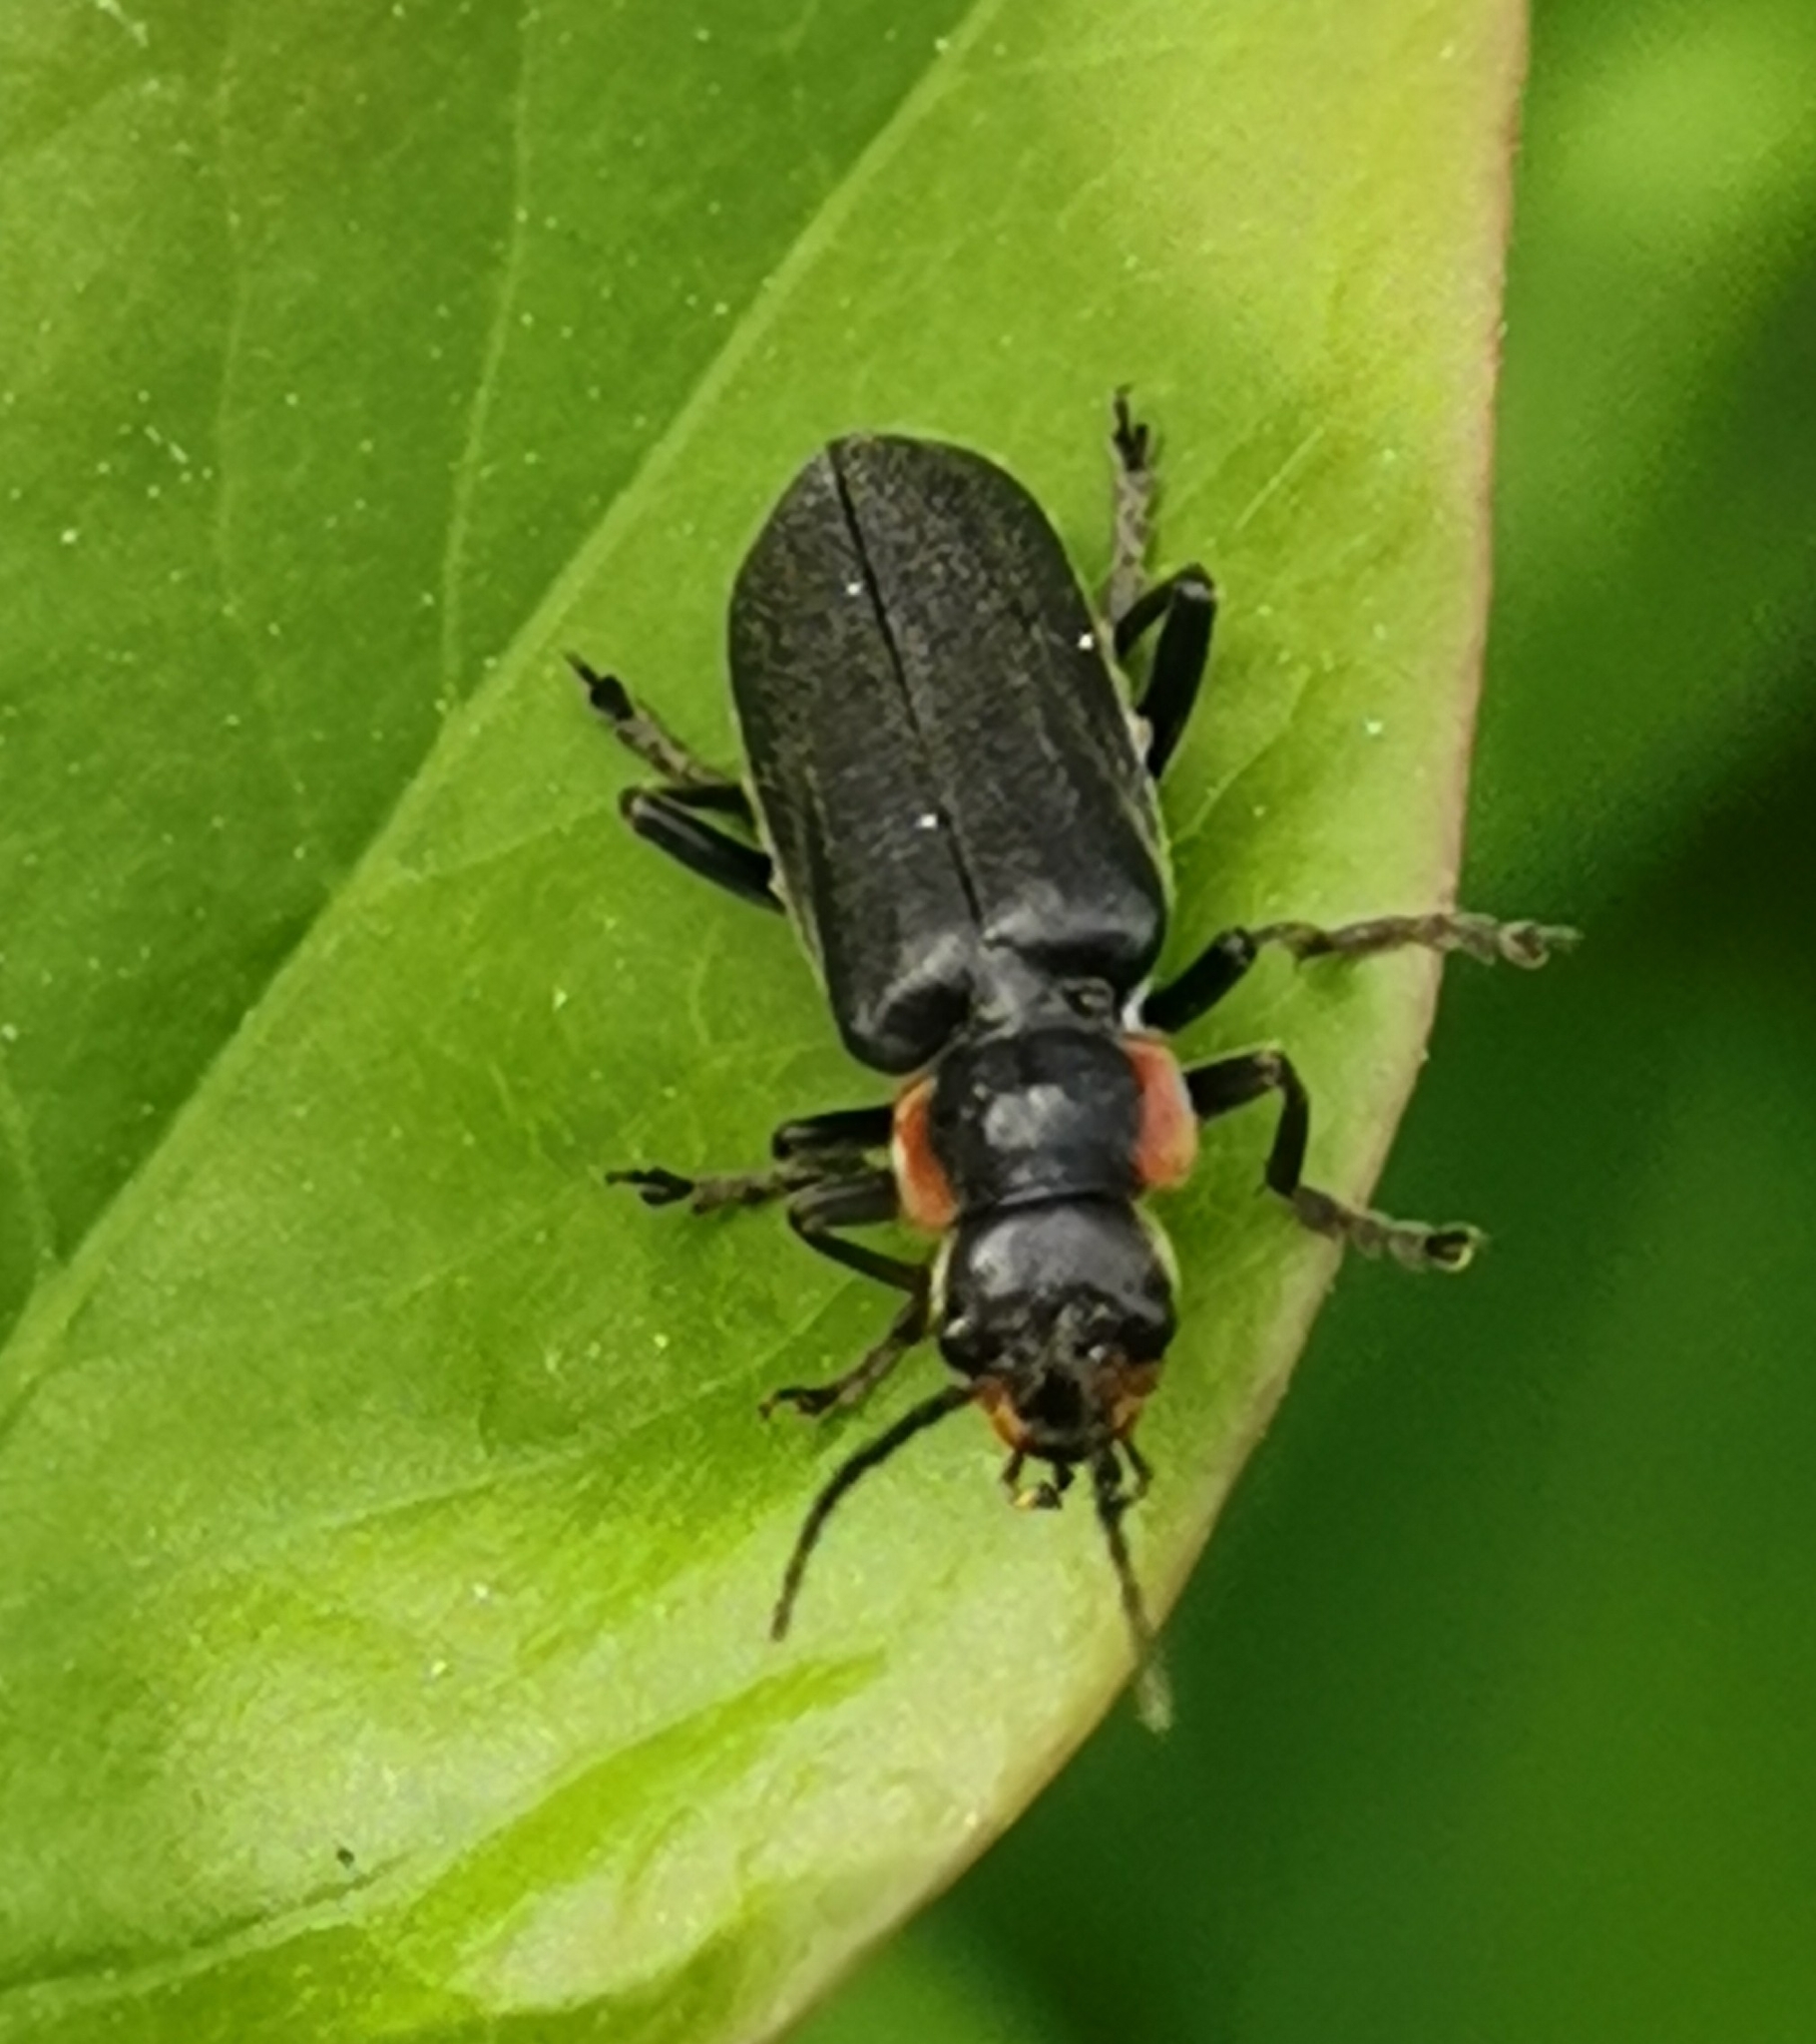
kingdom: Animalia
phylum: Arthropoda
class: Insecta
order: Coleoptera
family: Cantharidae
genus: Cantharis
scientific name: Cantharis obscura
